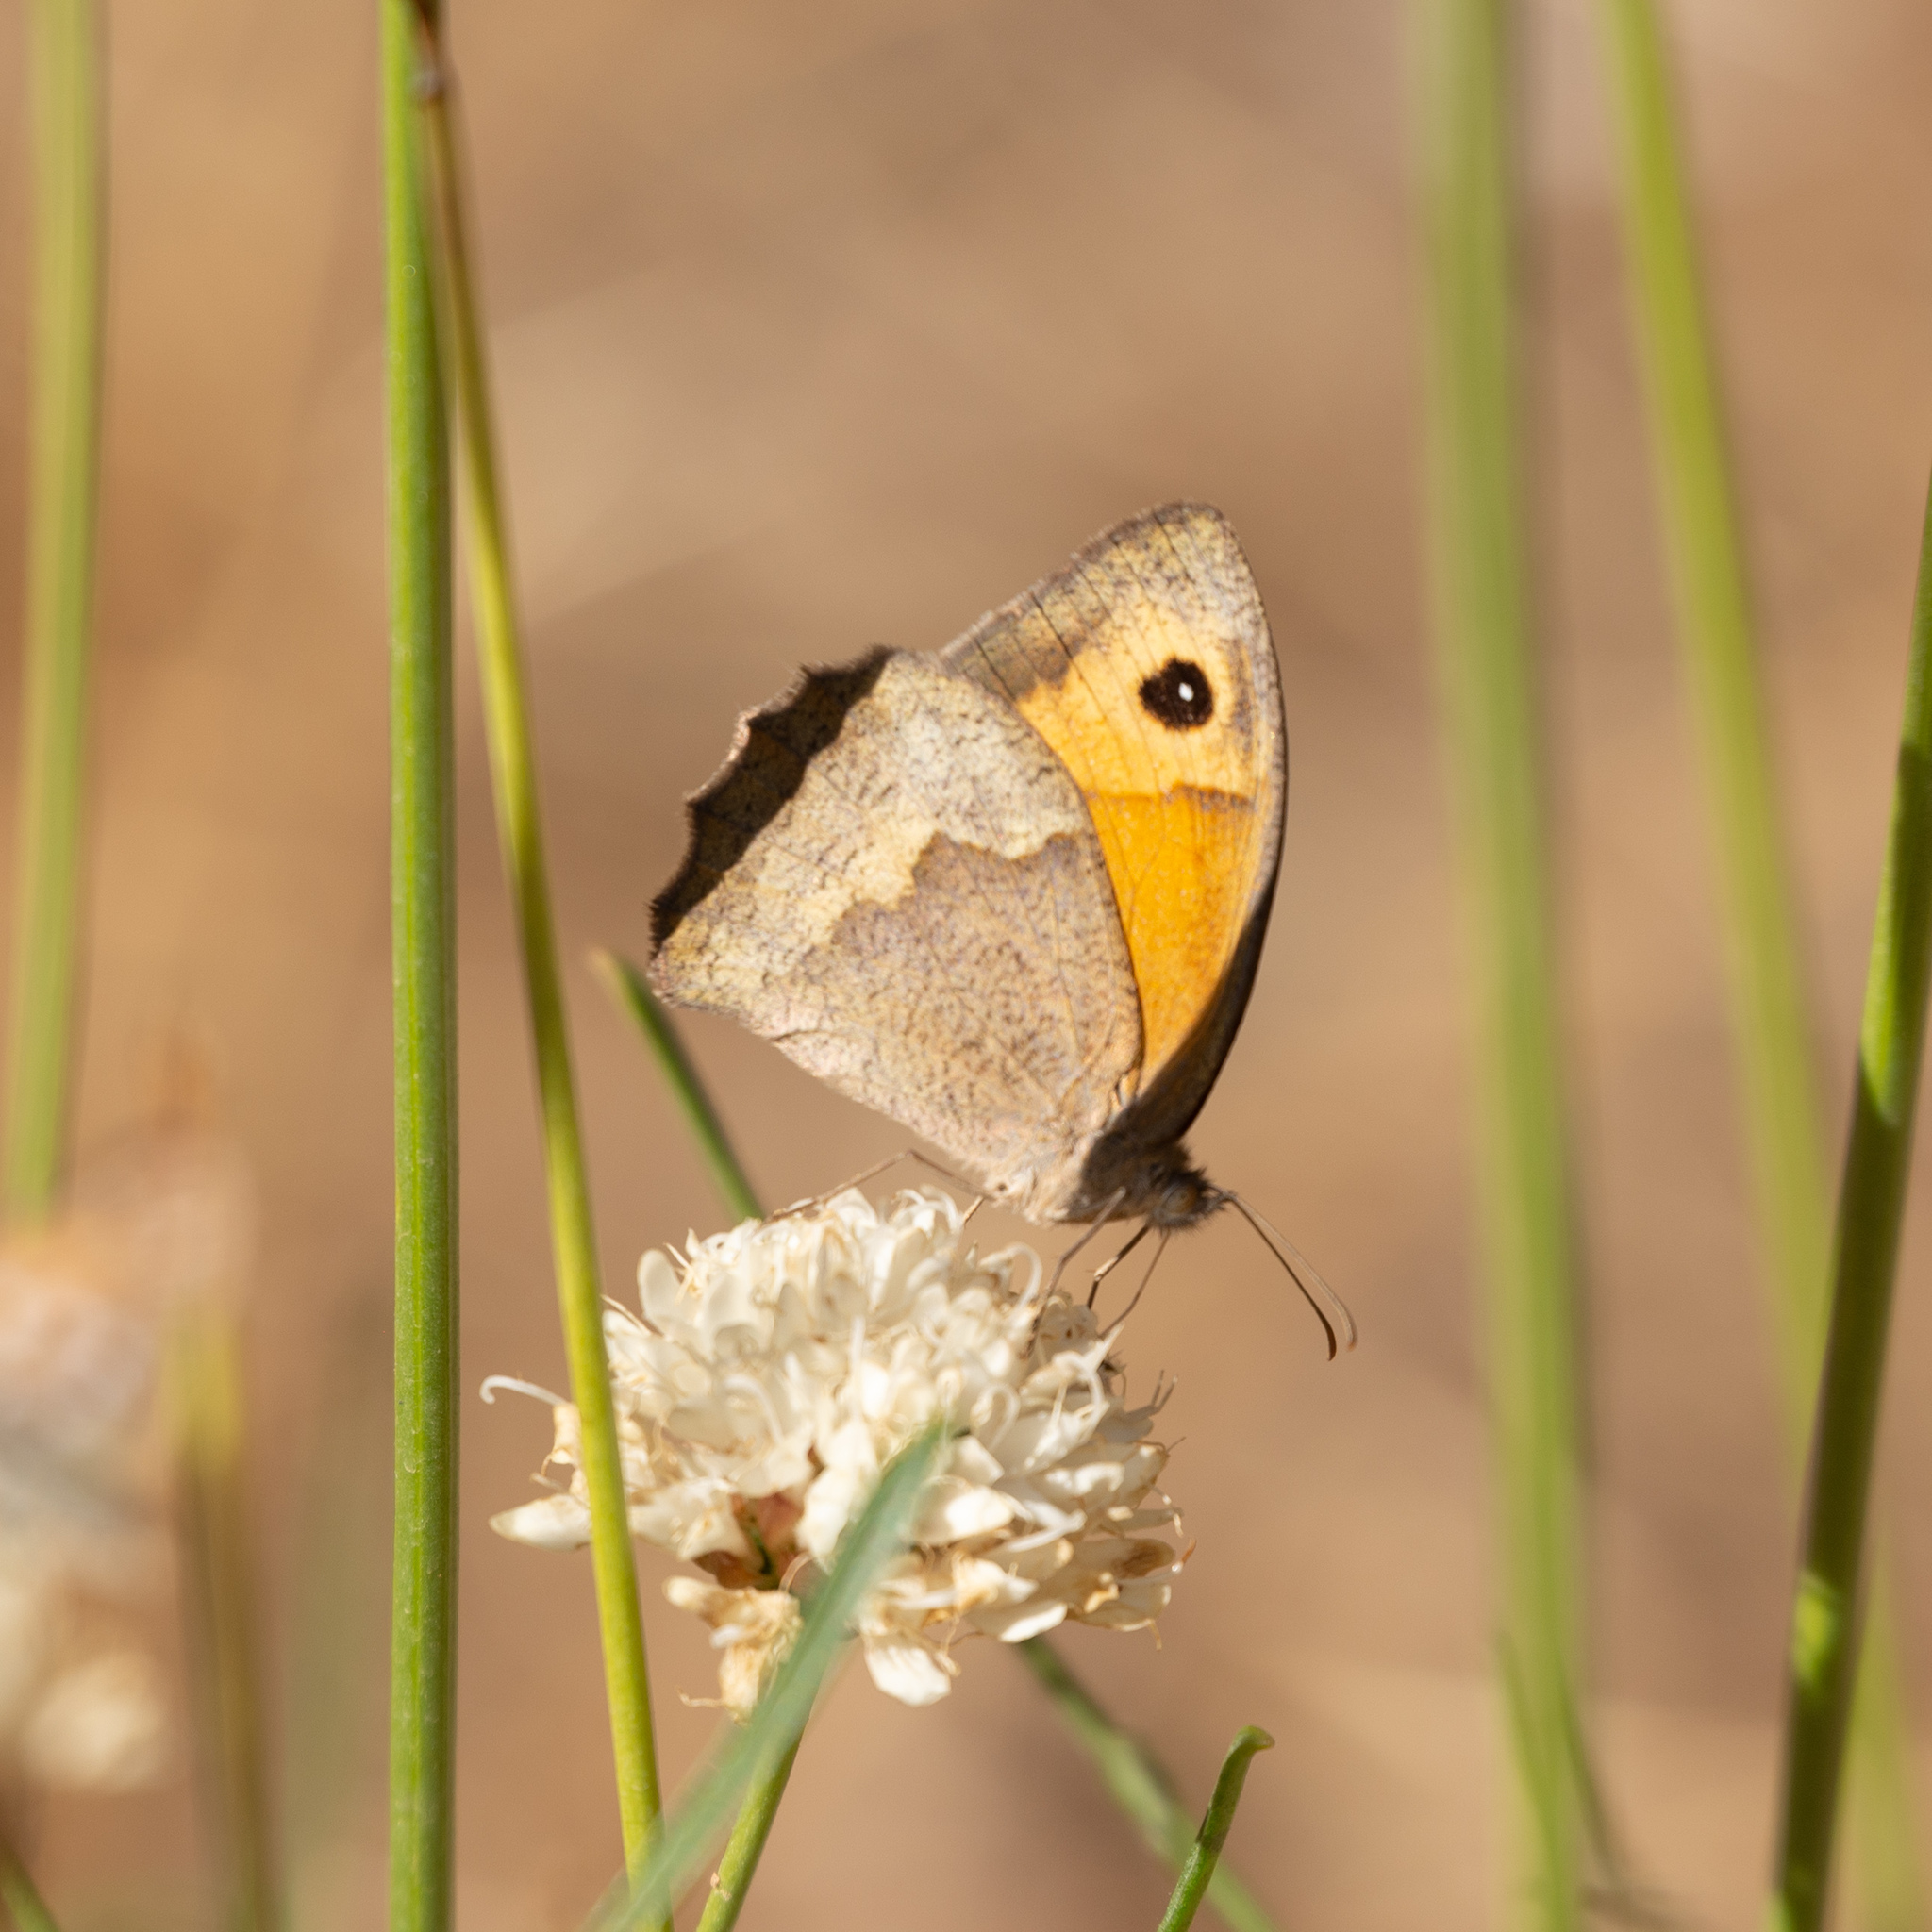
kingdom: Animalia
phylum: Arthropoda
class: Insecta
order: Lepidoptera
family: Nymphalidae
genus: Maniola
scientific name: Maniola jurtina
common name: Meadow brown
